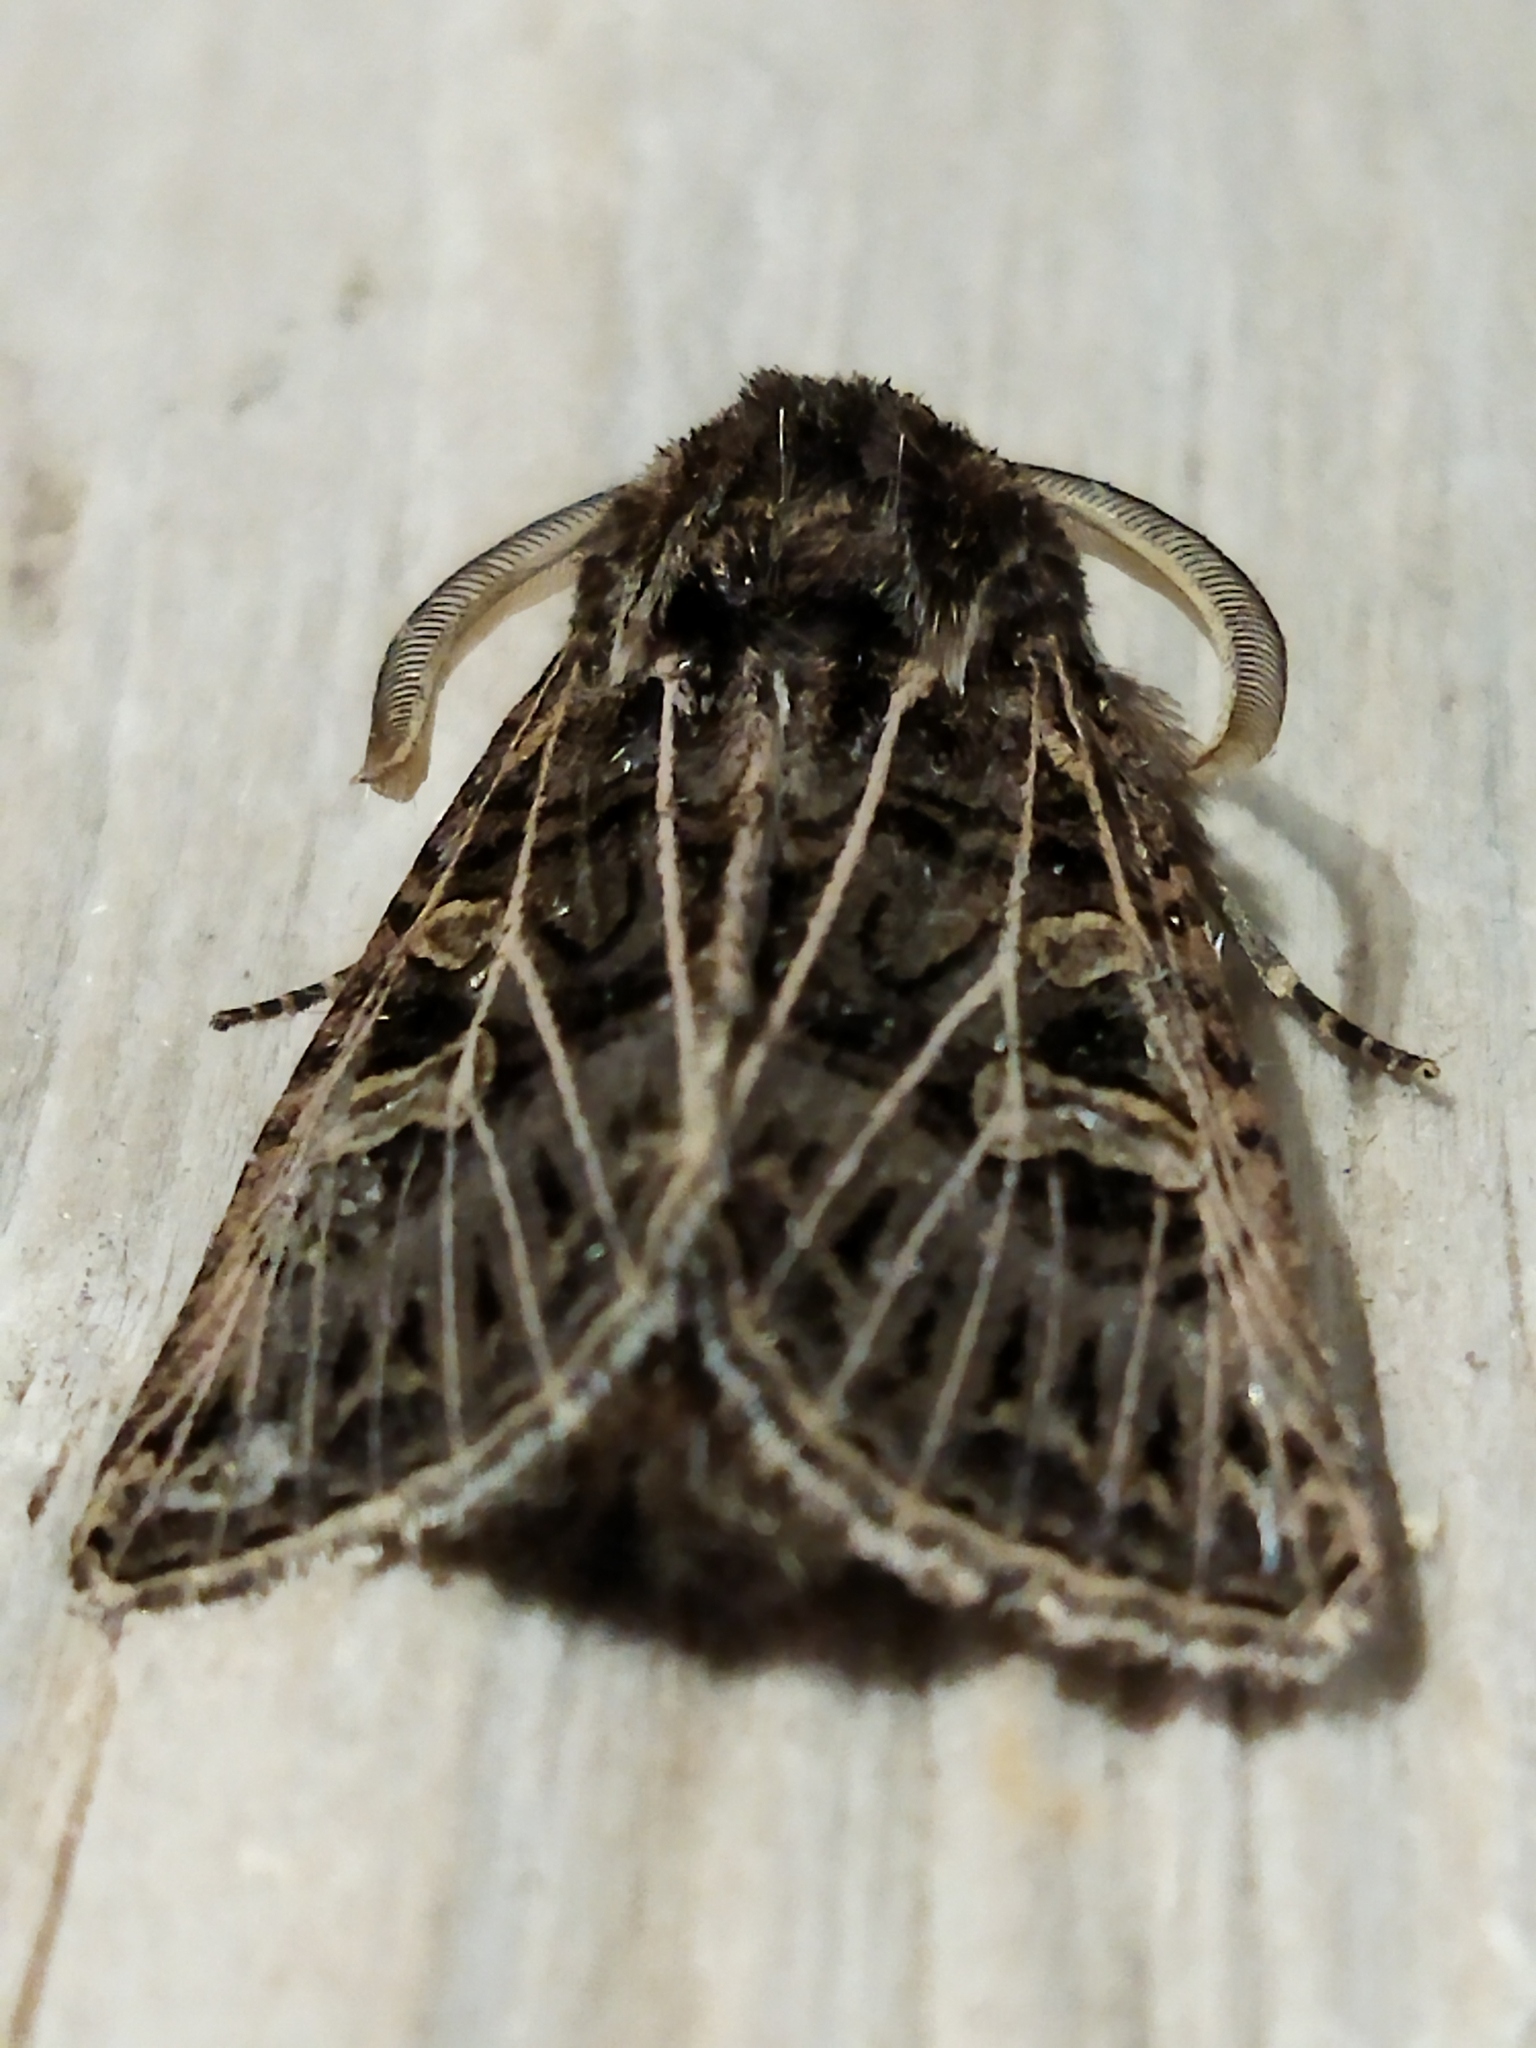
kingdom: Animalia
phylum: Arthropoda
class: Insecta
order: Lepidoptera
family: Noctuidae
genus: Tholera
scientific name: Tholera decimalis
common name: Feathered gothic
